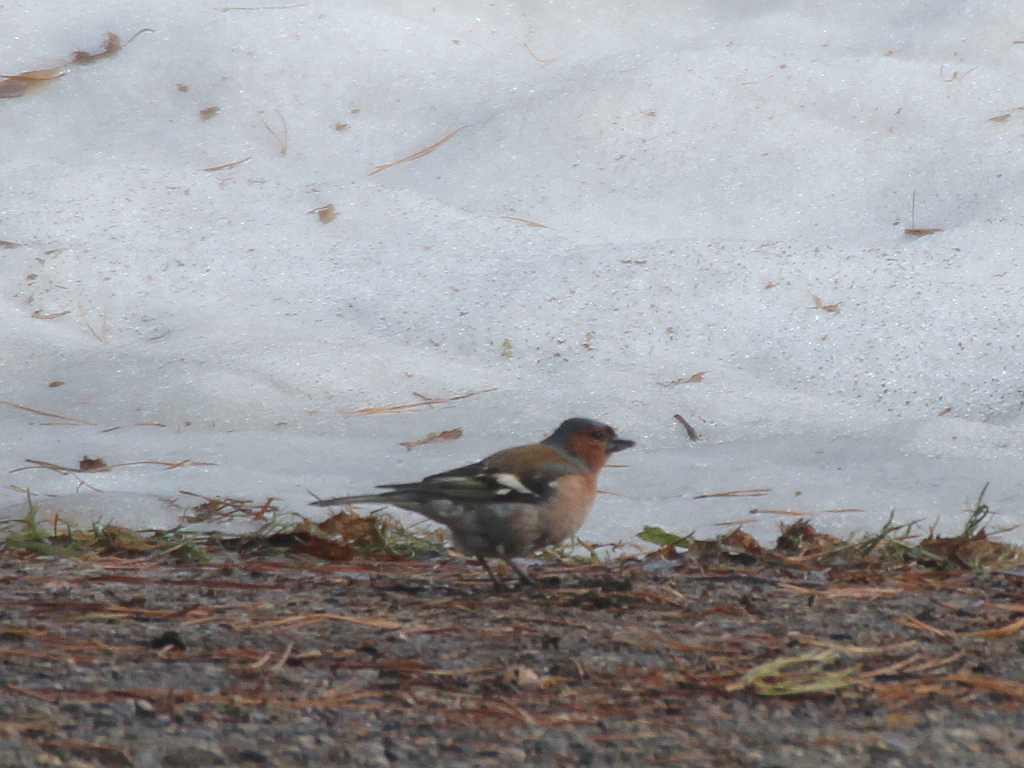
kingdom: Animalia
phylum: Chordata
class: Aves
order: Passeriformes
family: Fringillidae
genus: Fringilla
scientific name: Fringilla coelebs
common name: Common chaffinch
